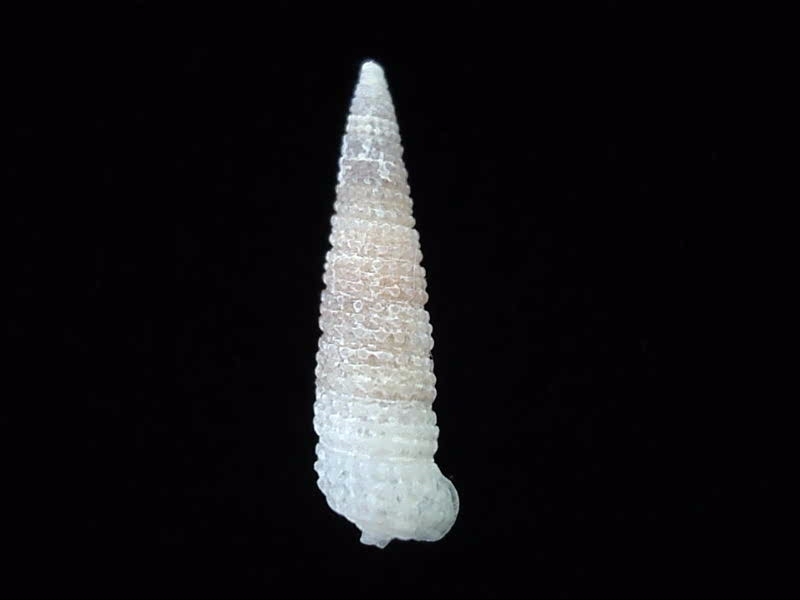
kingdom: Animalia
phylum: Mollusca
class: Gastropoda
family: Triphoridae
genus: Bouchetriphora
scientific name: Bouchetriphora pallida
